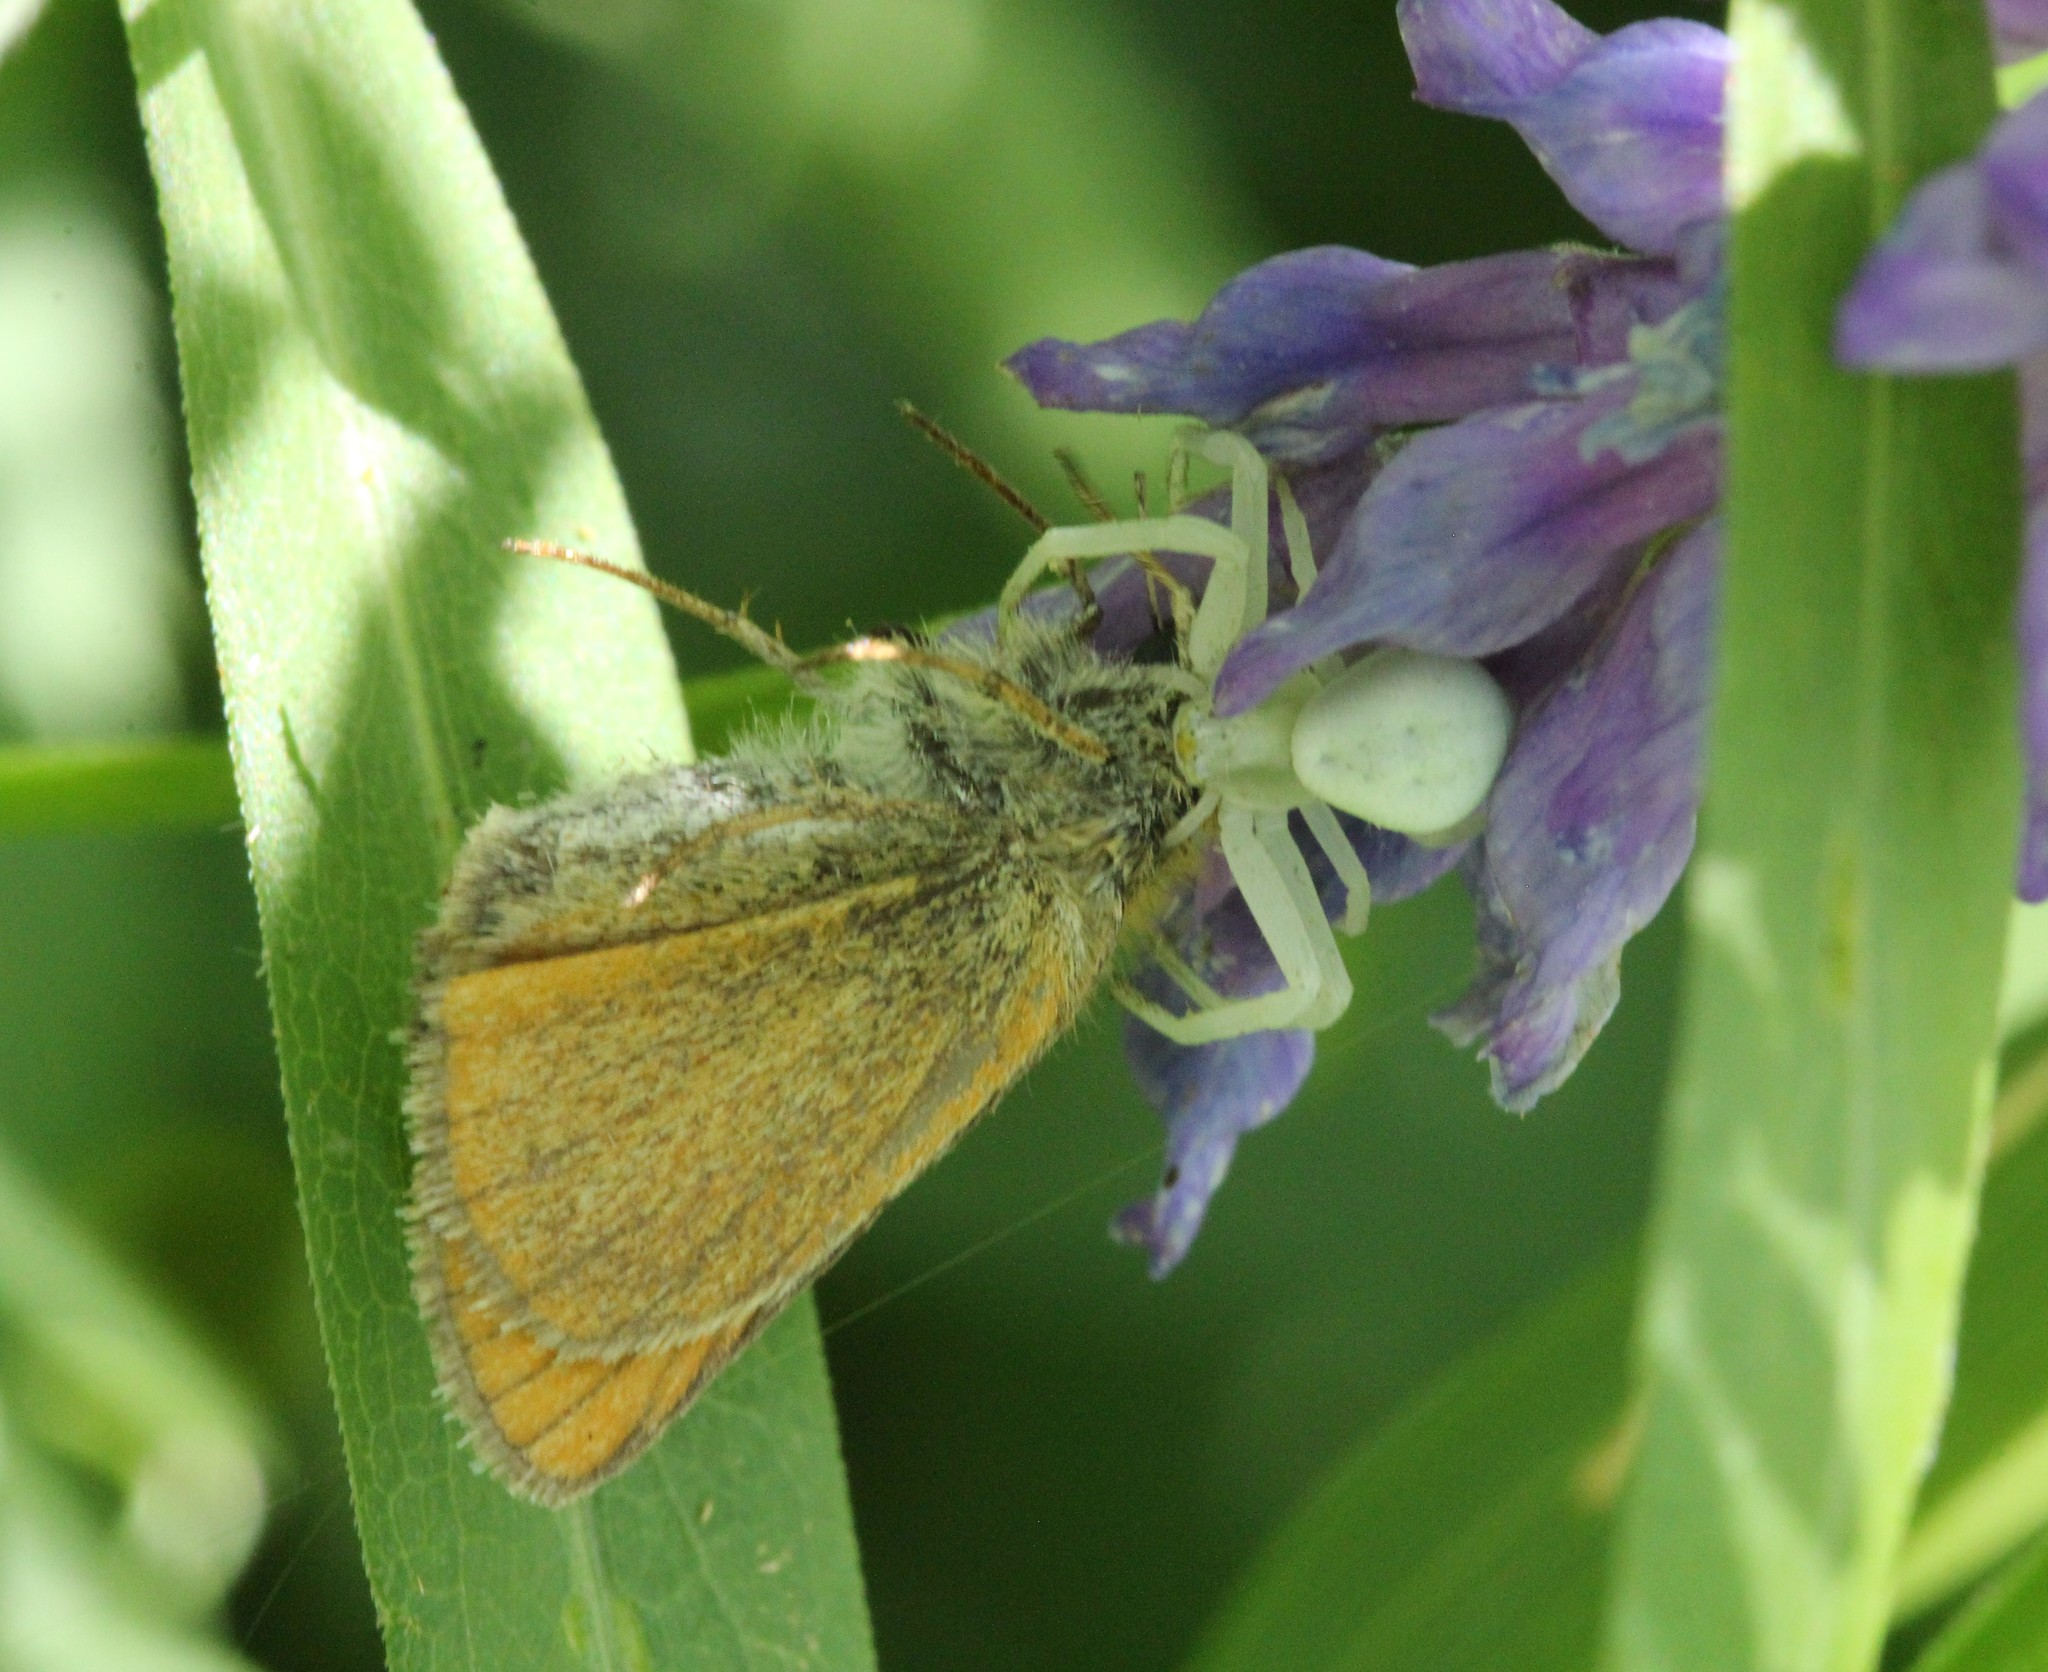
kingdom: Animalia
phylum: Arthropoda
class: Arachnida
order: Araneae
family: Thomisidae
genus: Misumena
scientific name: Misumena vatia
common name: Goldenrod crab spider
